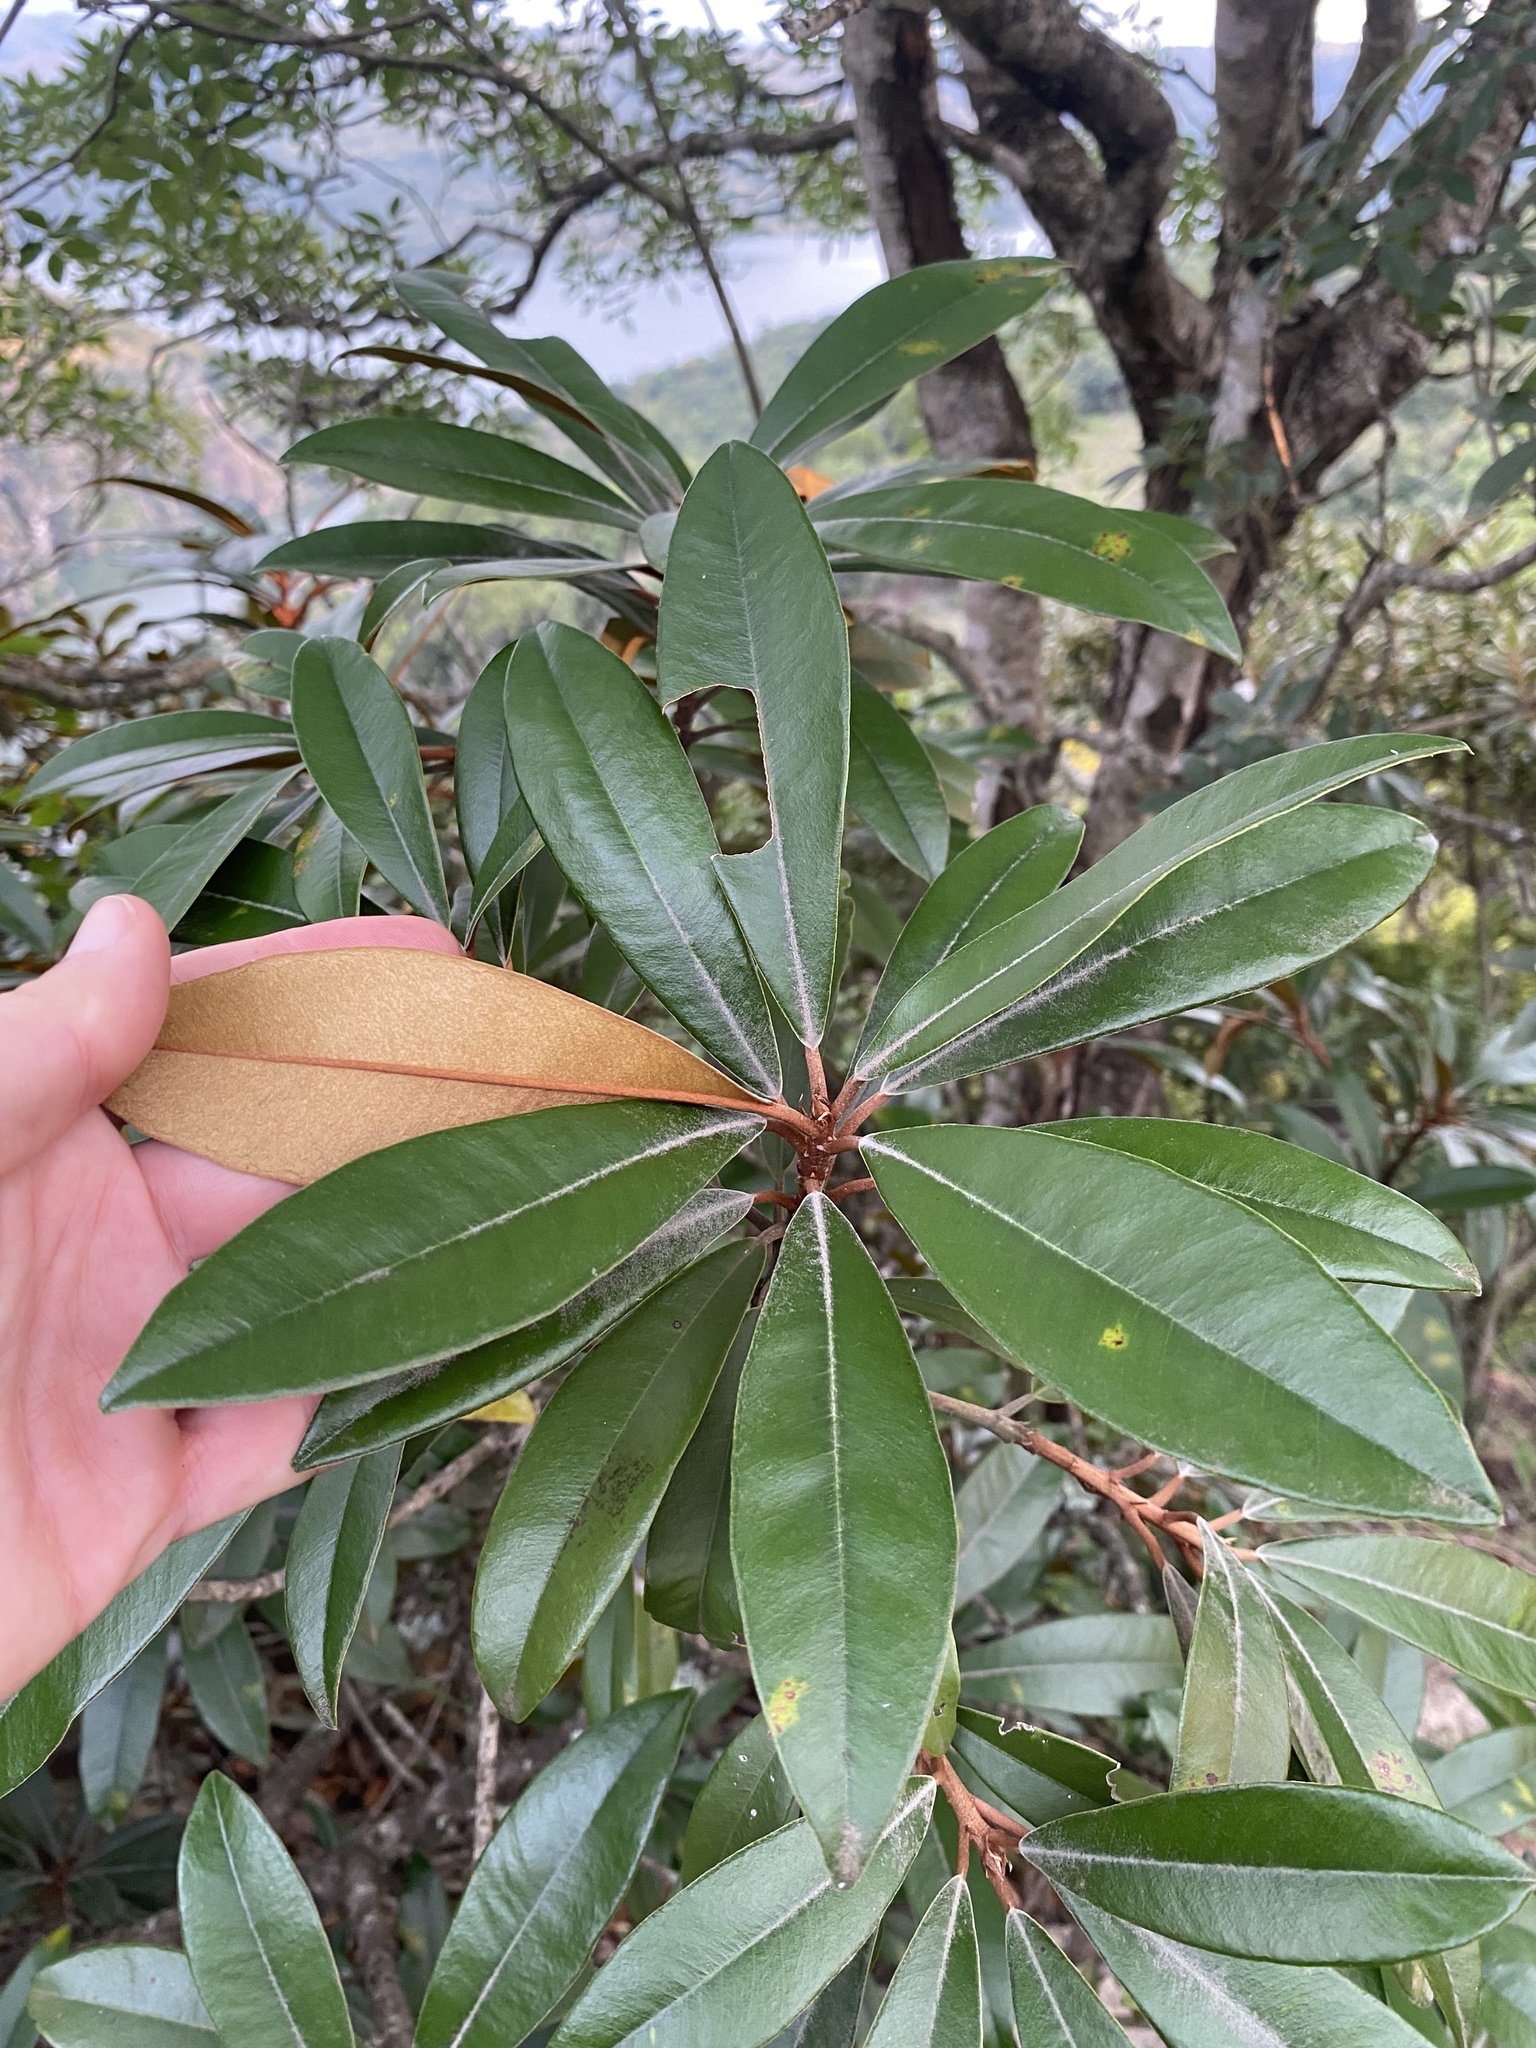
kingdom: Plantae
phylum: Tracheophyta
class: Magnoliopsida
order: Ericales
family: Sapotaceae
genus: Englerophytum
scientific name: Englerophytum magalismontanum
